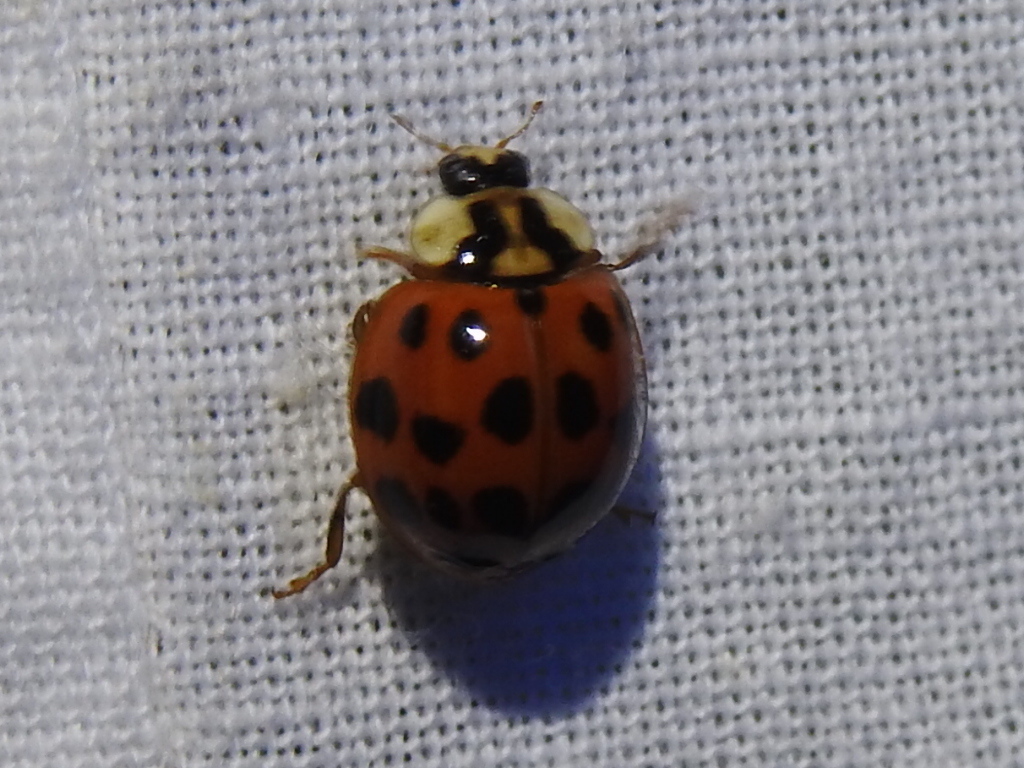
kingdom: Animalia
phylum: Arthropoda
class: Insecta
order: Coleoptera
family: Coccinellidae
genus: Harmonia
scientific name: Harmonia axyridis
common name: Harlequin ladybird
